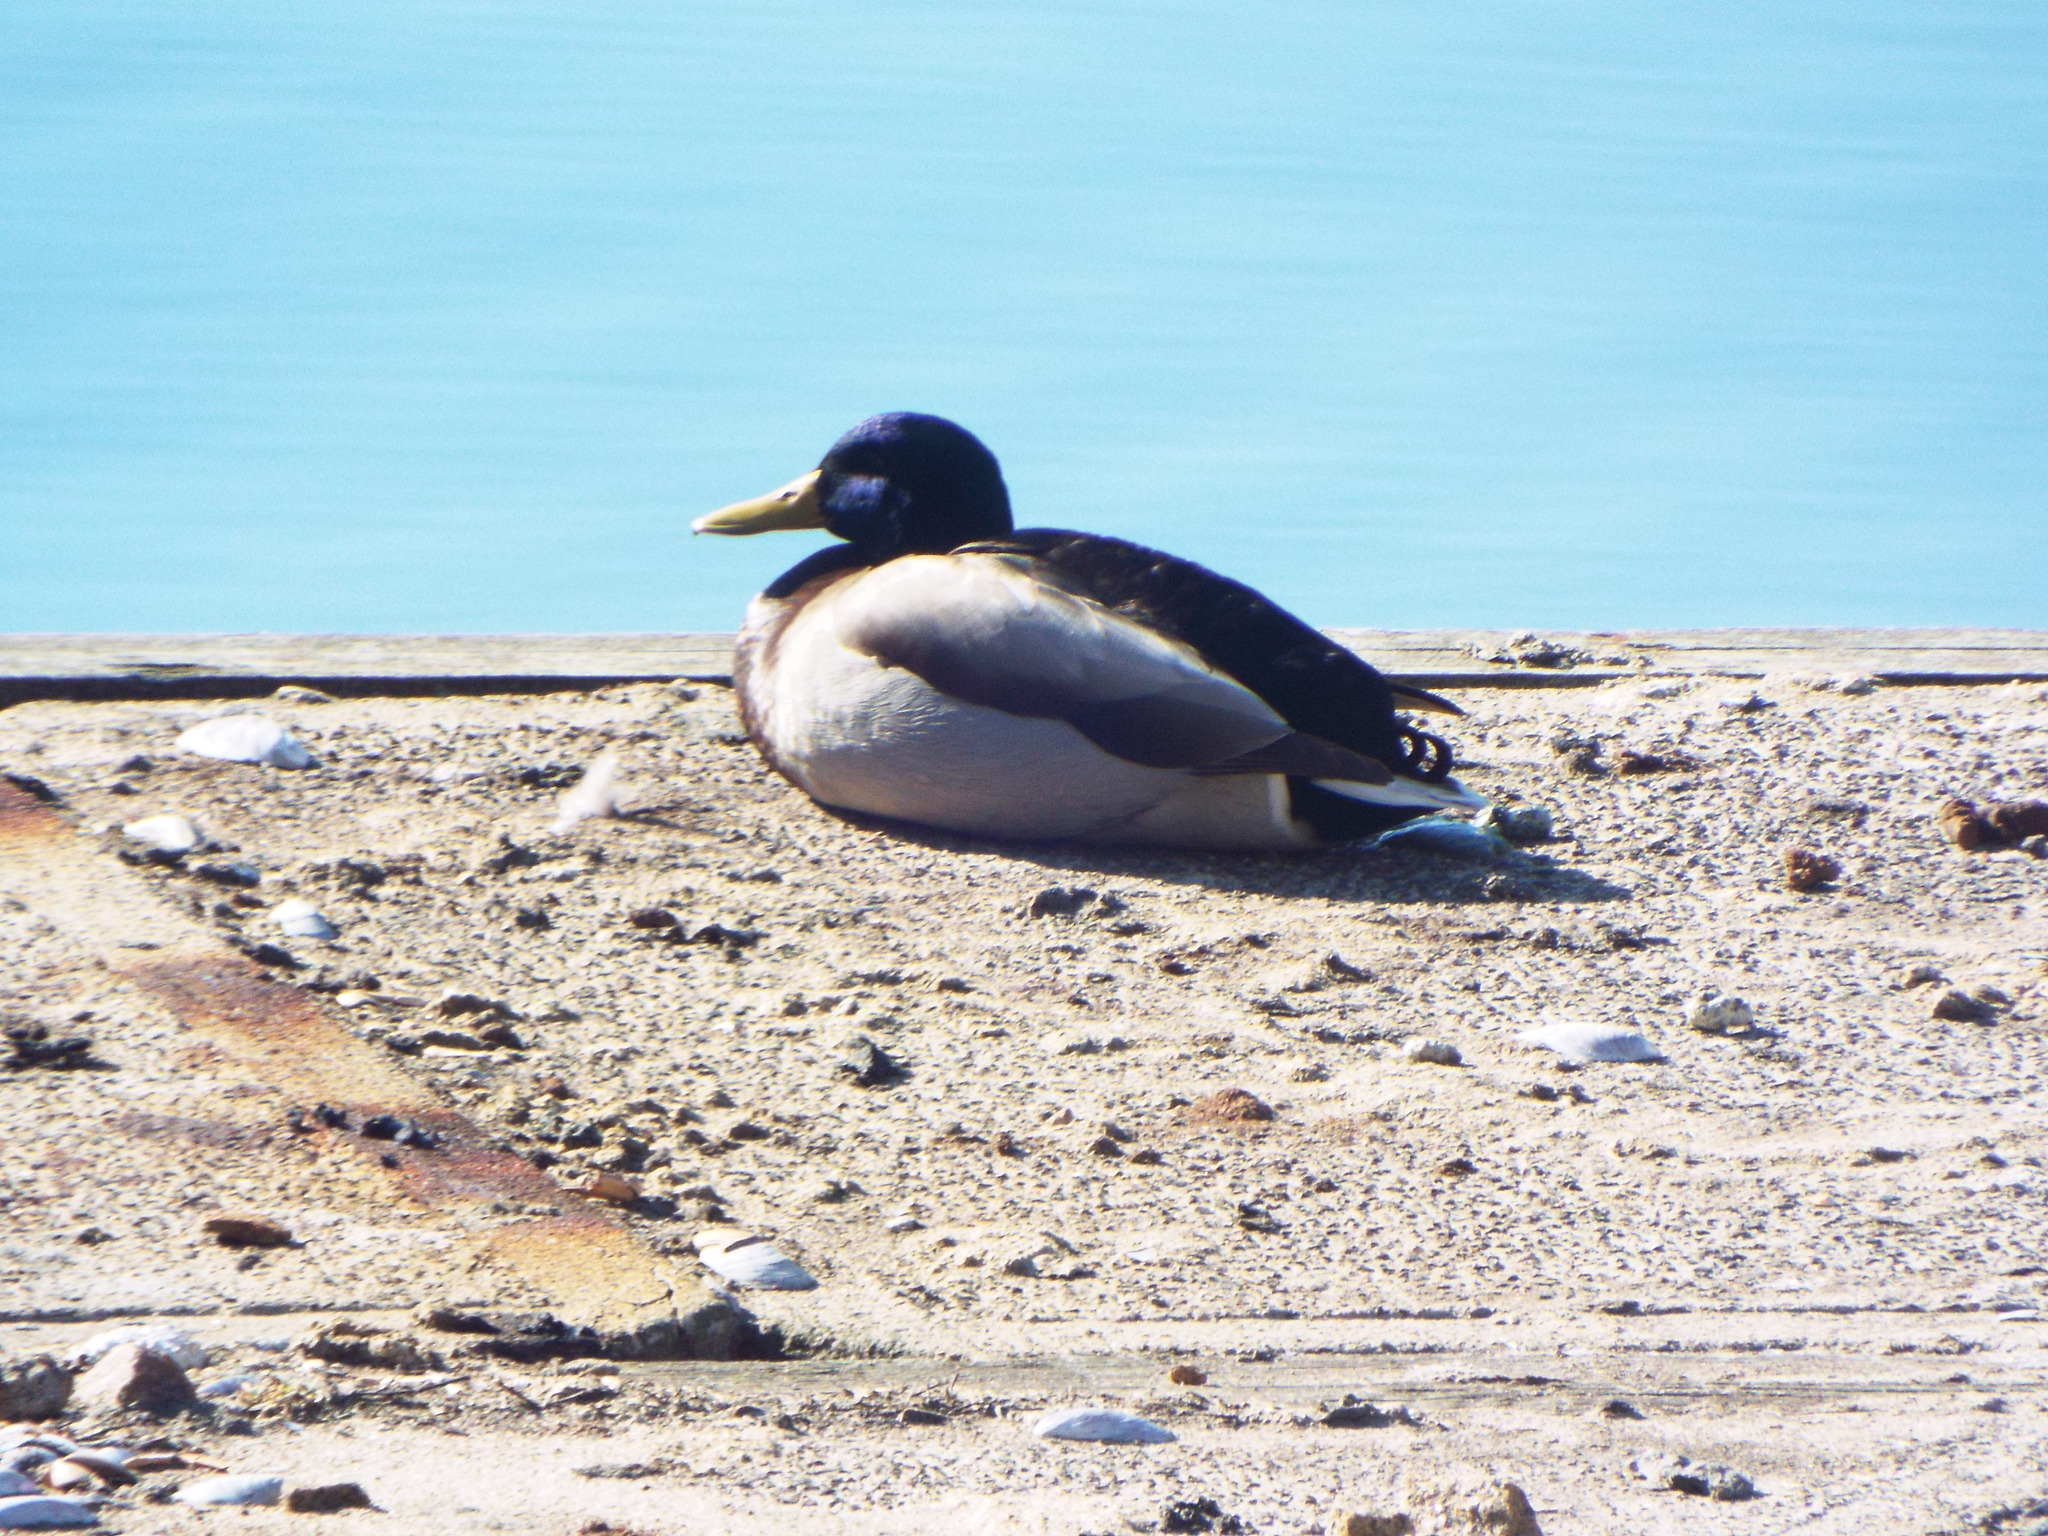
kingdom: Animalia
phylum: Chordata
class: Aves
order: Anseriformes
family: Anatidae
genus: Anas
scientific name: Anas platyrhynchos
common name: Mallard
